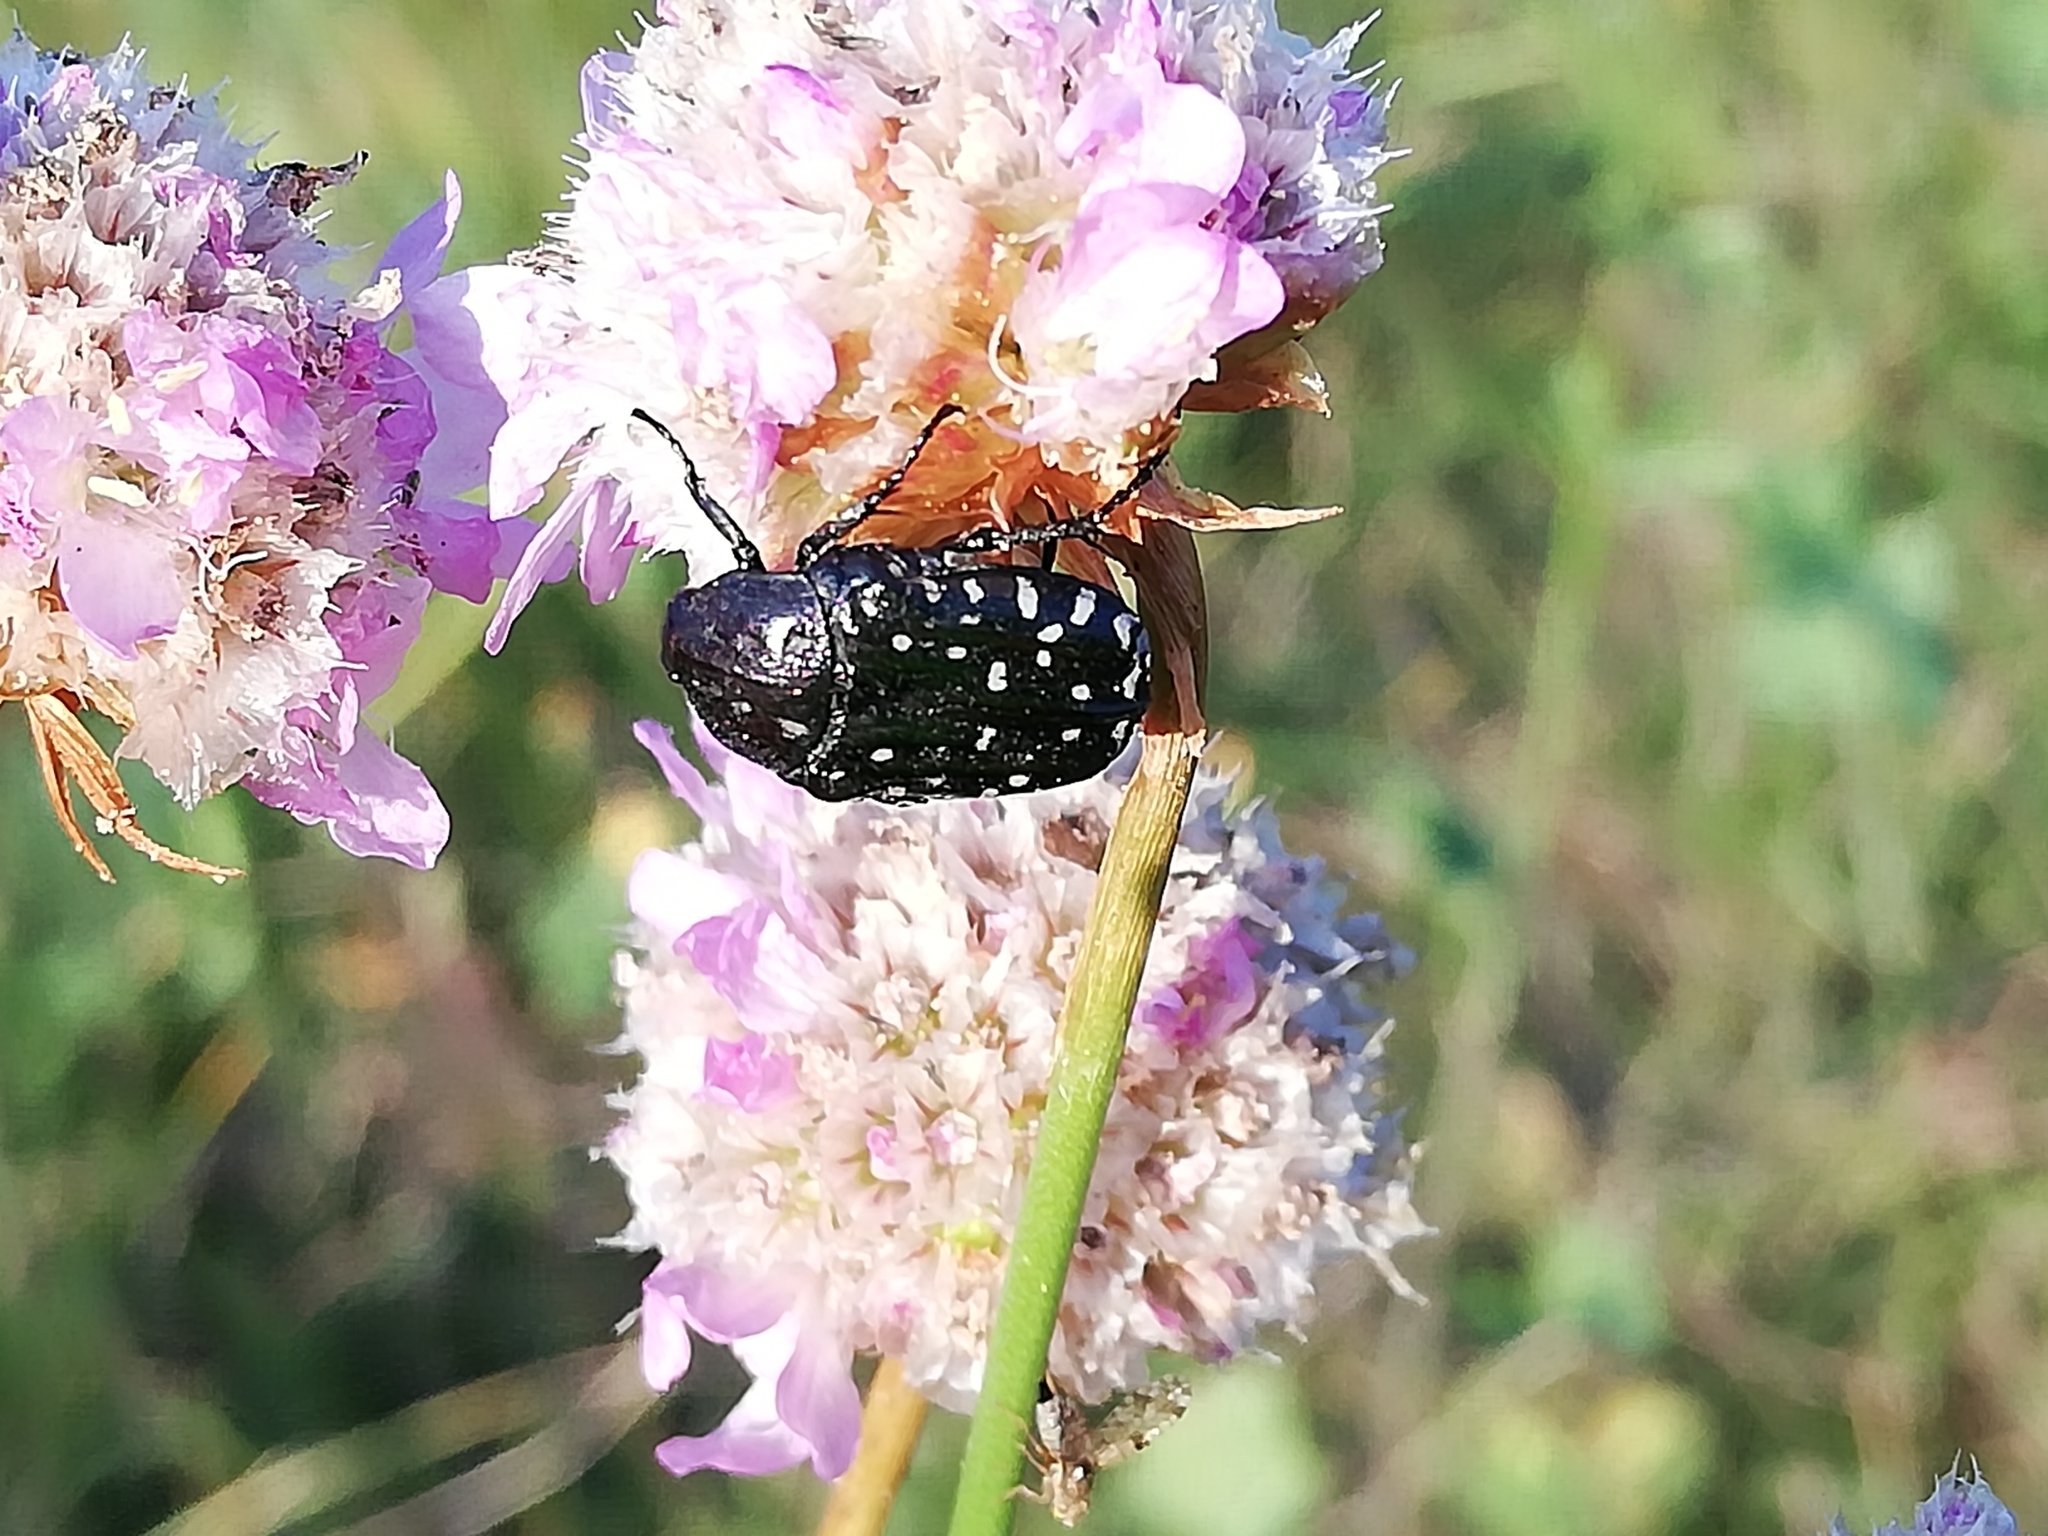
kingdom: Animalia
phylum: Arthropoda
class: Insecta
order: Coleoptera
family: Scarabaeidae
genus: Oxythyrea
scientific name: Oxythyrea funesta
